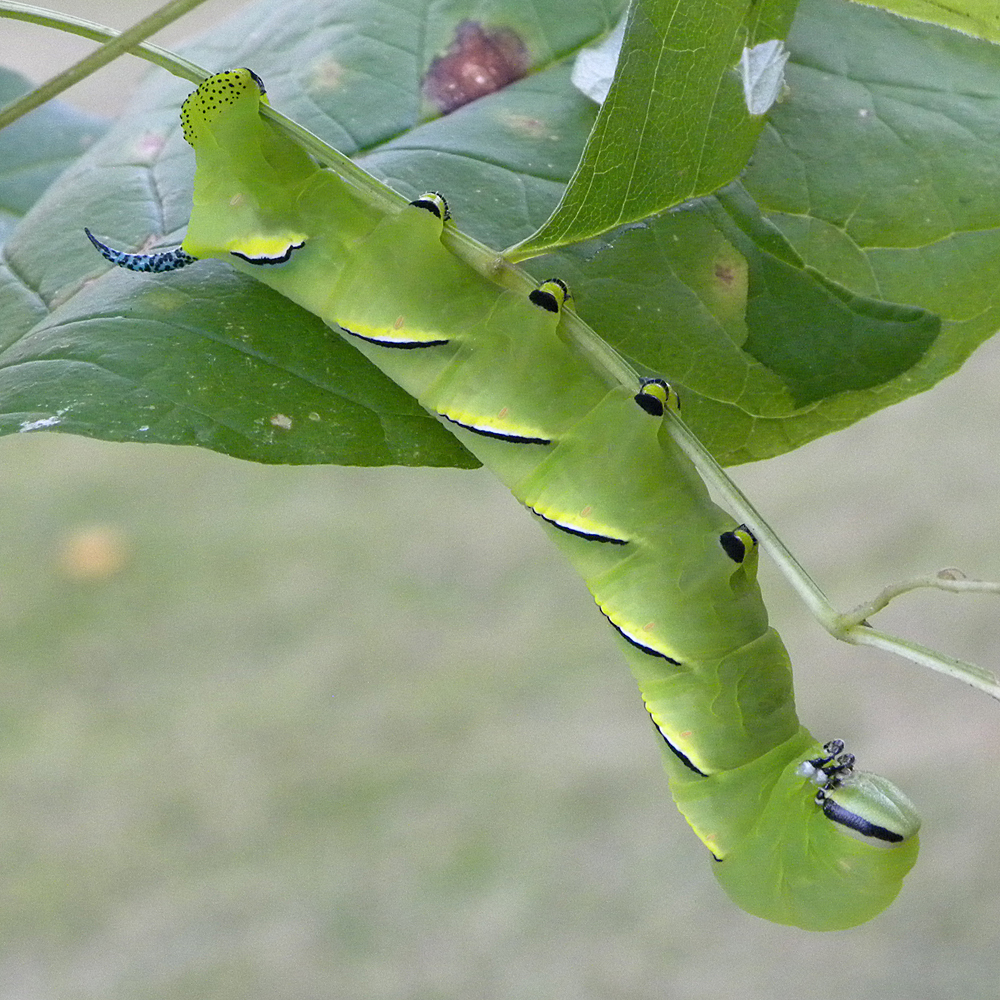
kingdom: Animalia
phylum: Arthropoda
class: Insecta
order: Lepidoptera
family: Sphingidae
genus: Sphinx
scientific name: Sphinx kalmiae
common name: Laurel sphinx
